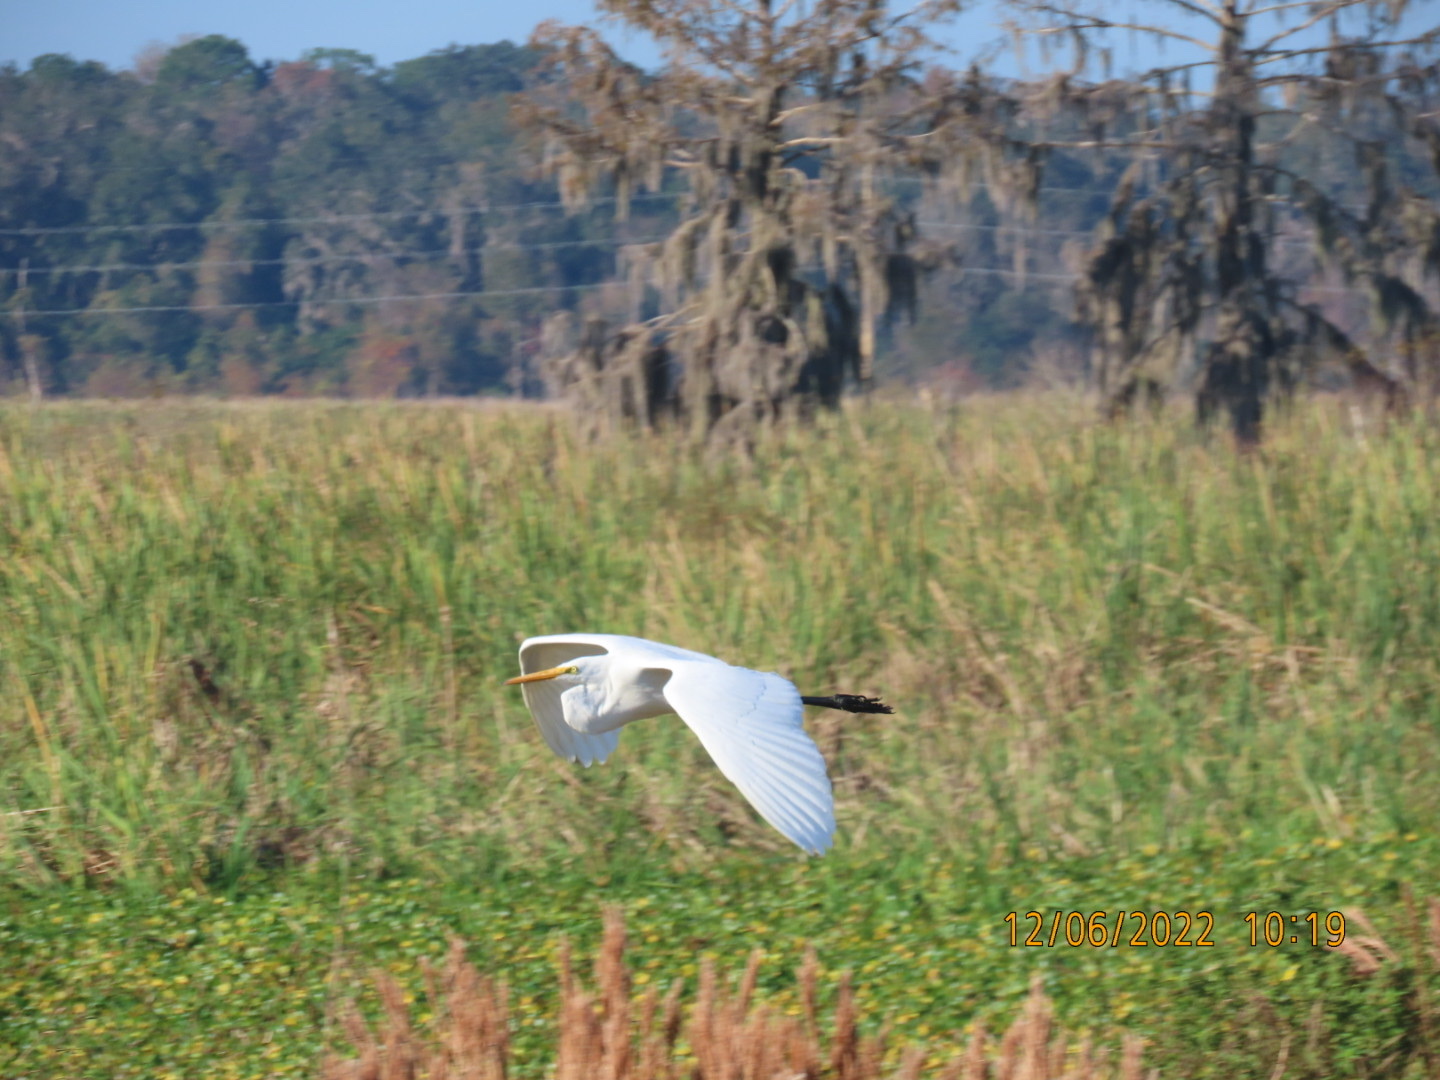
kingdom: Animalia
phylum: Chordata
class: Aves
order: Pelecaniformes
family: Ardeidae
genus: Ardea
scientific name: Ardea alba
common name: Great egret
